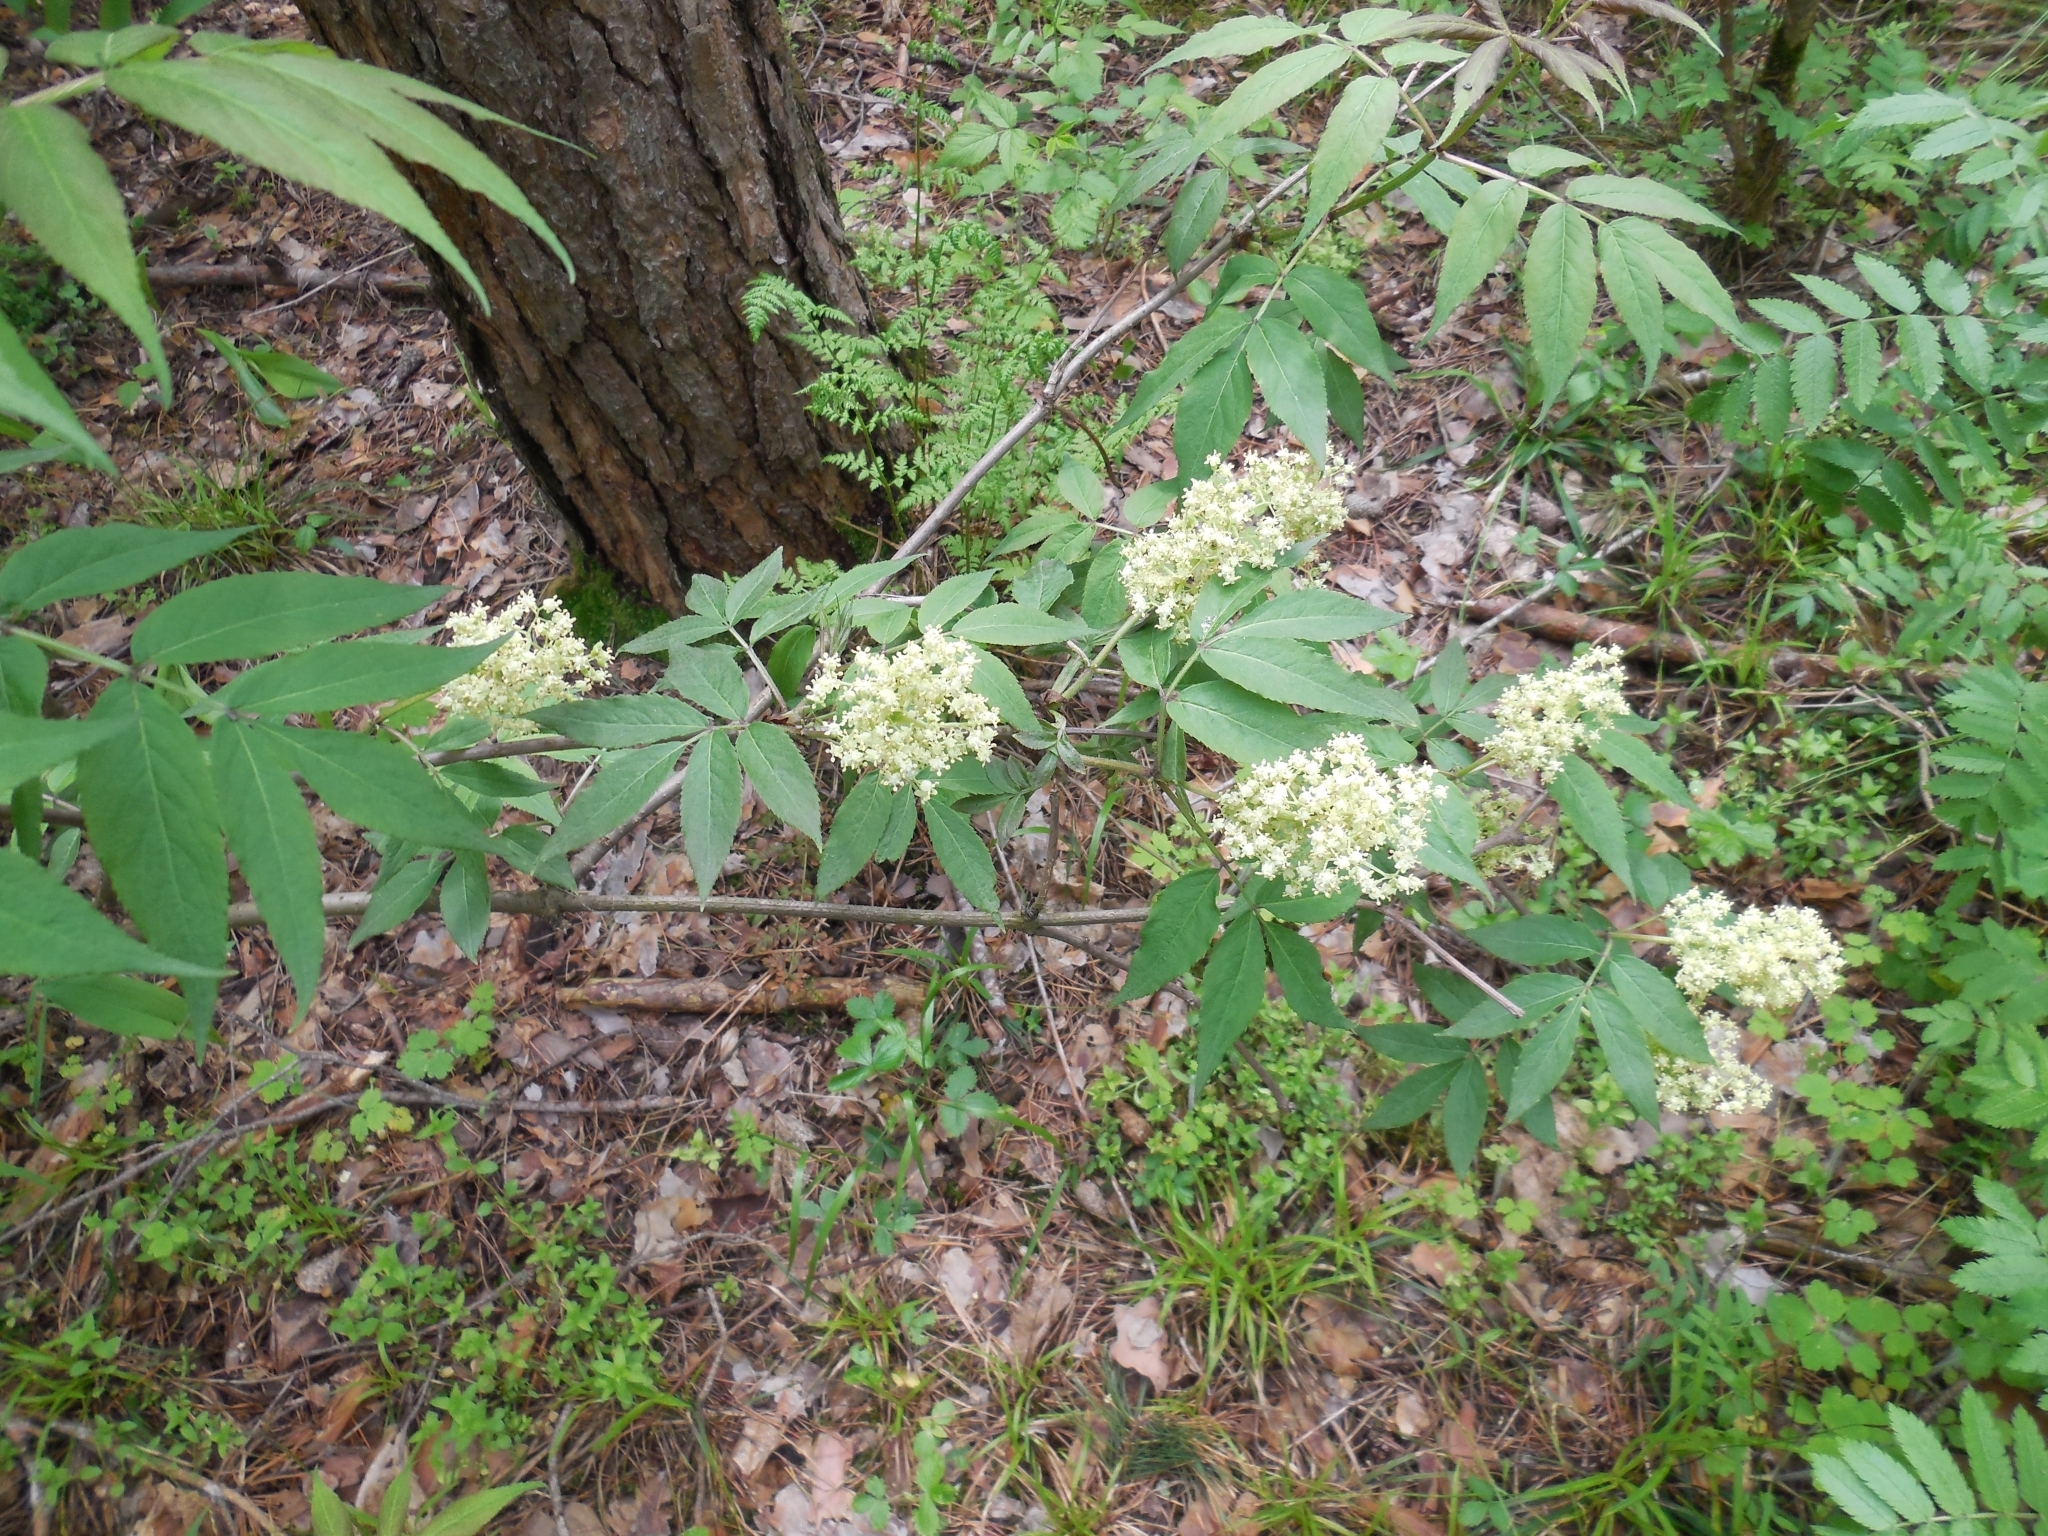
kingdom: Plantae
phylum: Tracheophyta
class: Magnoliopsida
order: Dipsacales
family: Viburnaceae
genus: Sambucus
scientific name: Sambucus racemosa
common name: Red-berried elder
